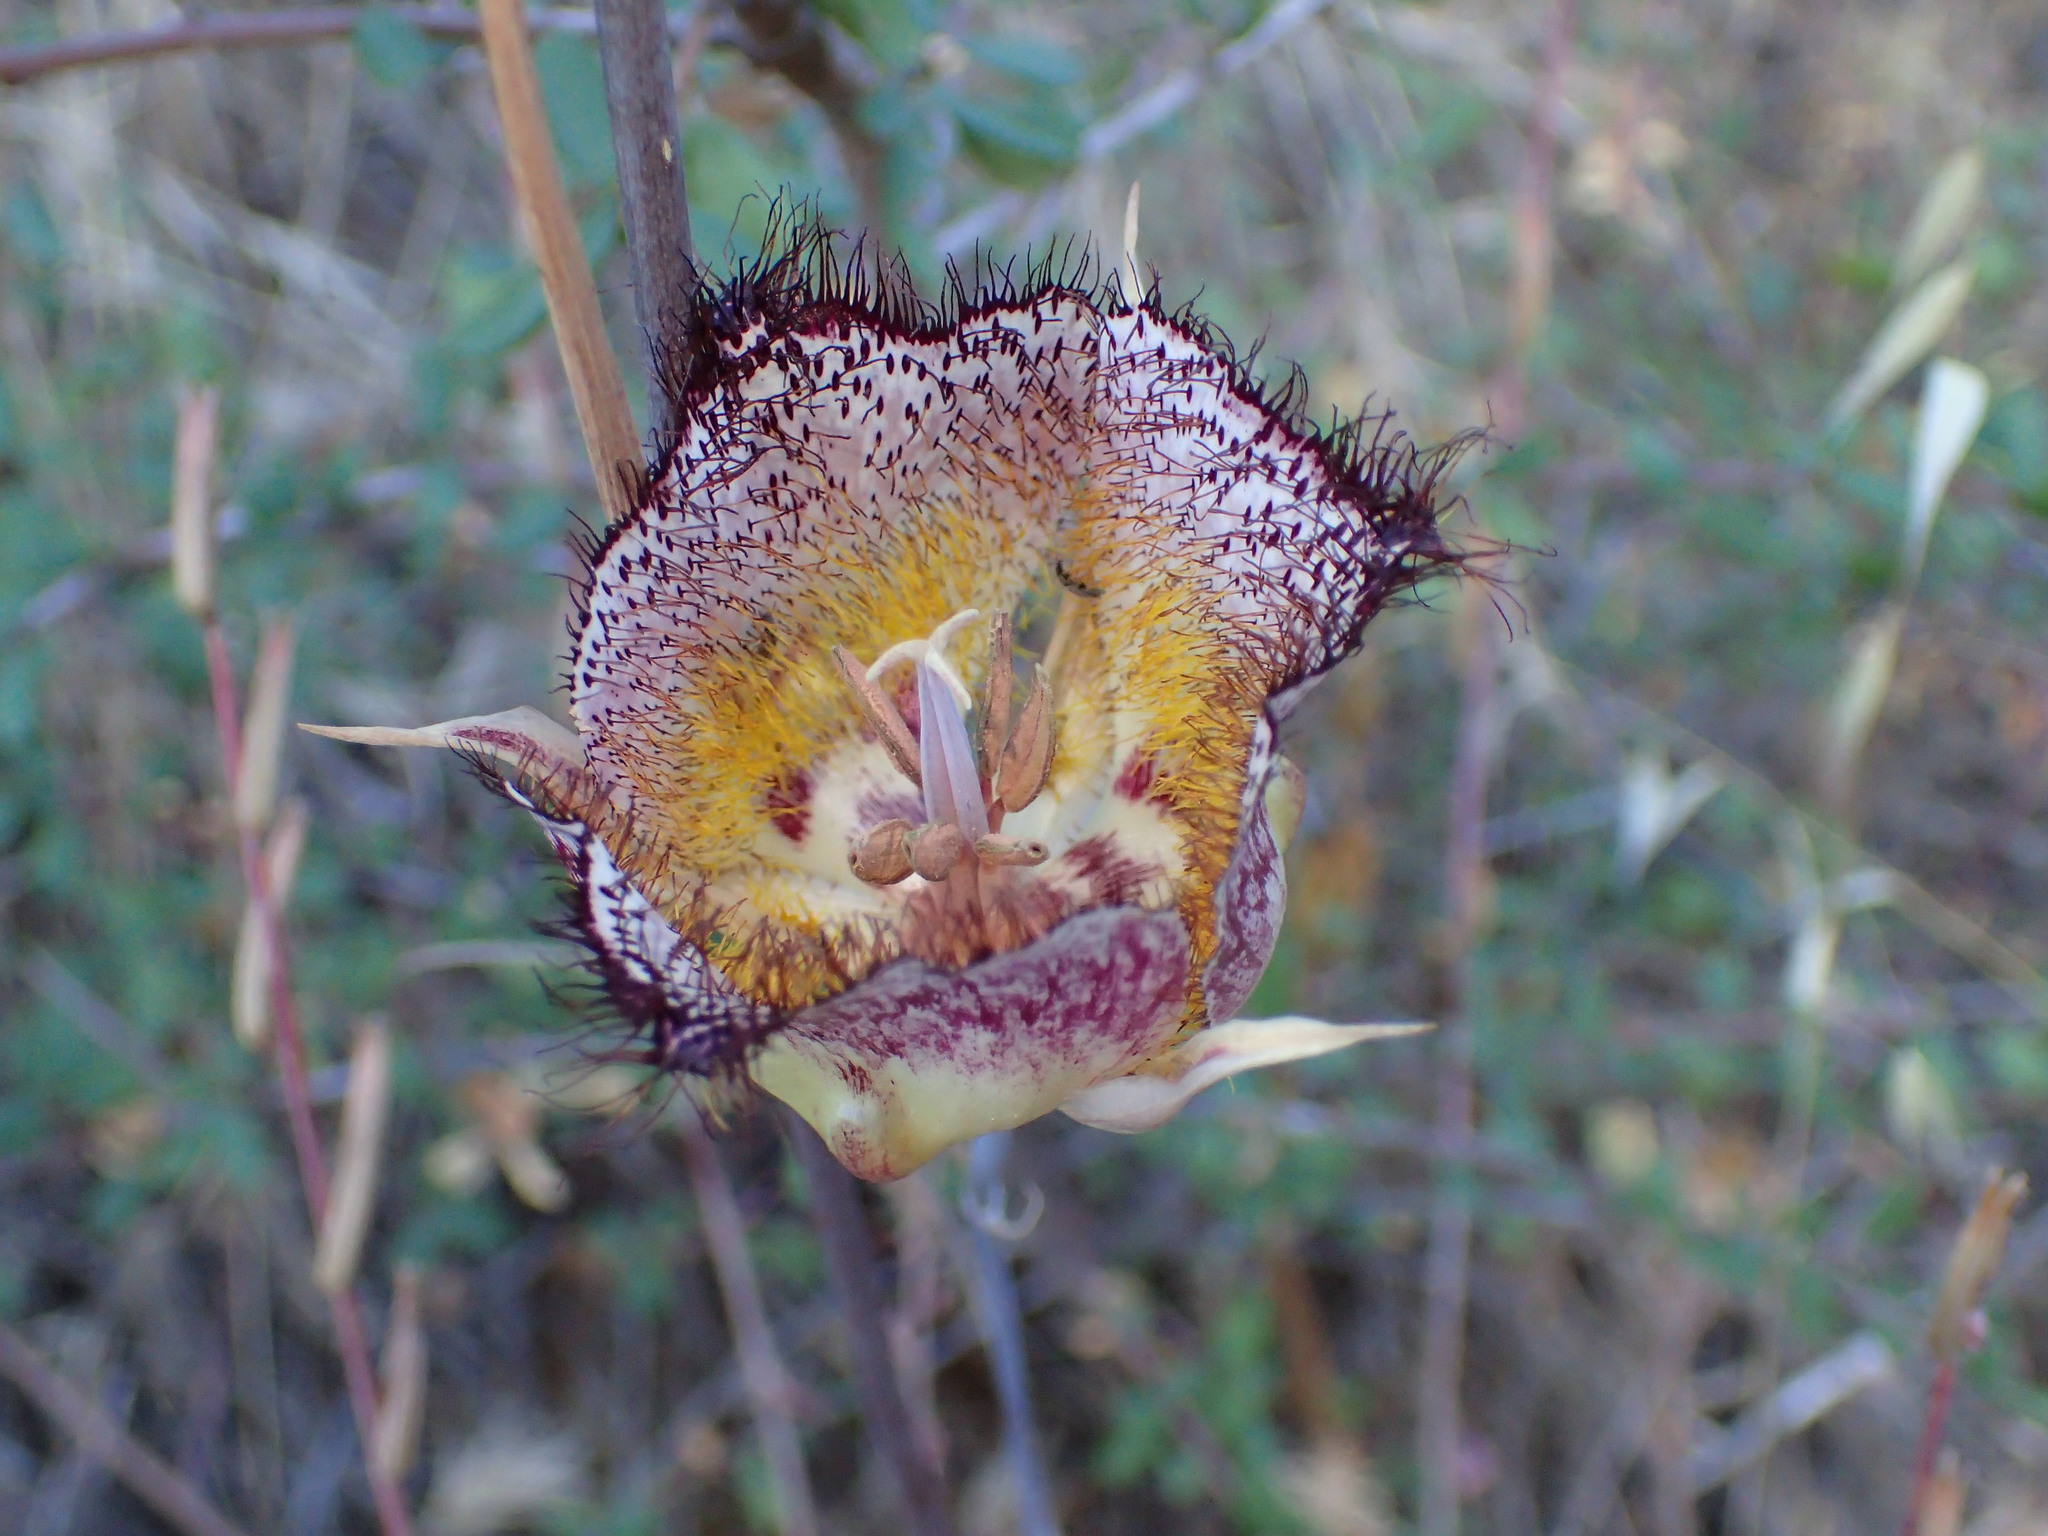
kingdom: Plantae
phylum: Tracheophyta
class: Liliopsida
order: Liliales
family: Liliaceae
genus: Calochortus
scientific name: Calochortus fimbriatus
